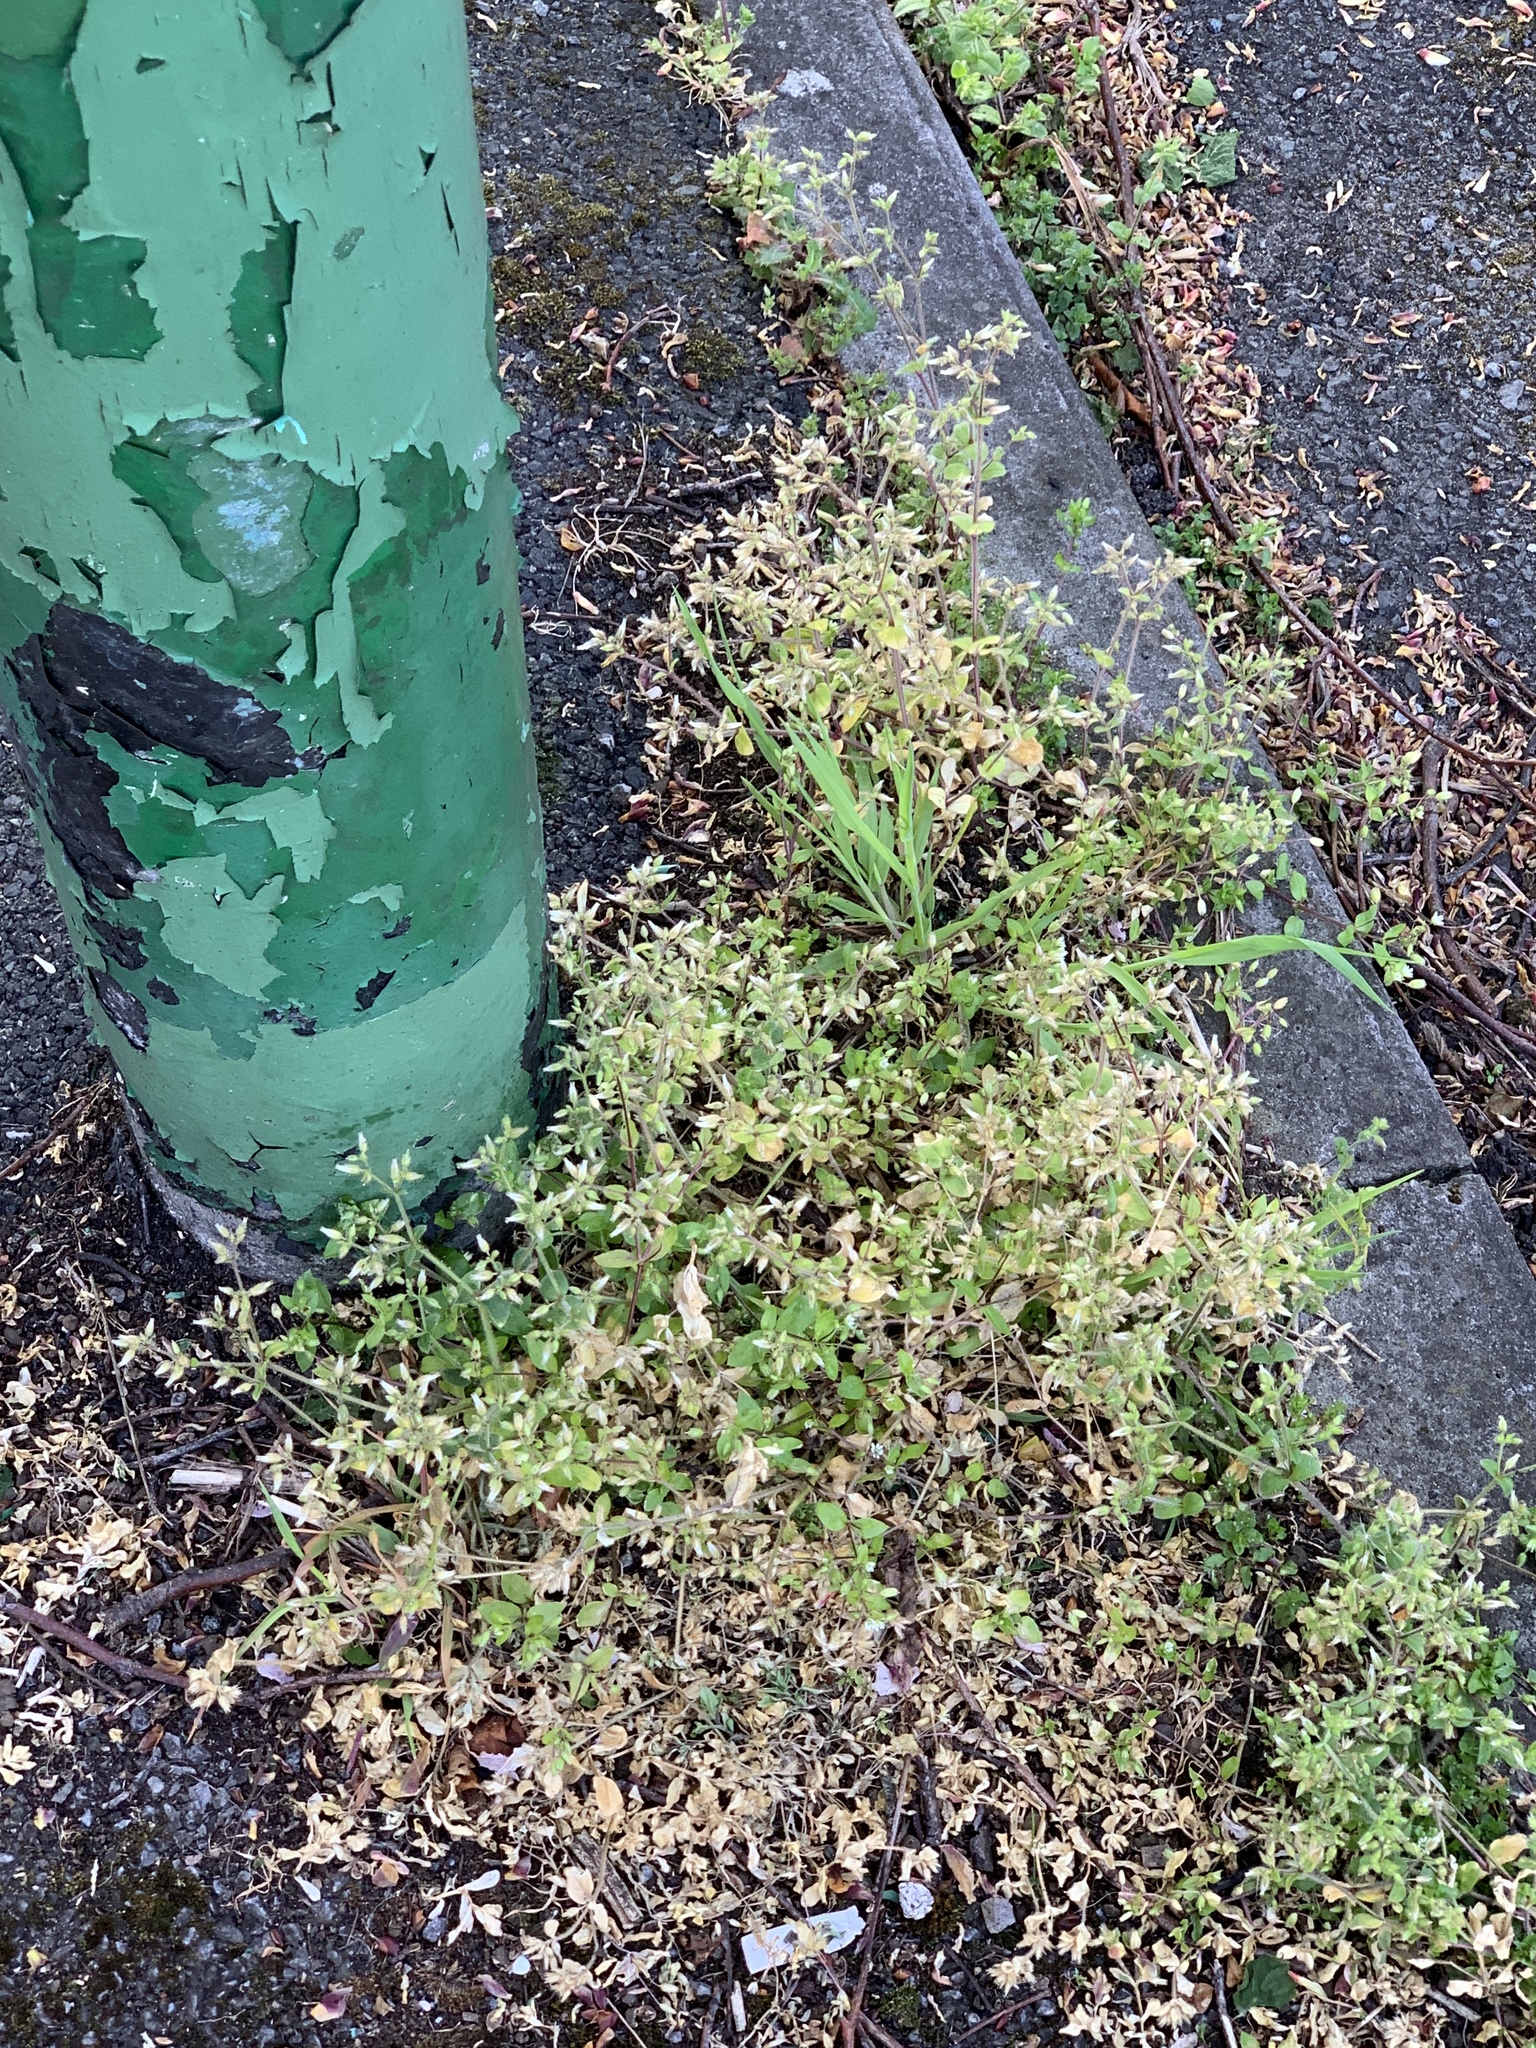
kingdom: Plantae
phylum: Tracheophyta
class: Magnoliopsida
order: Caryophyllales
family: Caryophyllaceae
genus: Cerastium
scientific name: Cerastium glomeratum
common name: Sticky chickweed
